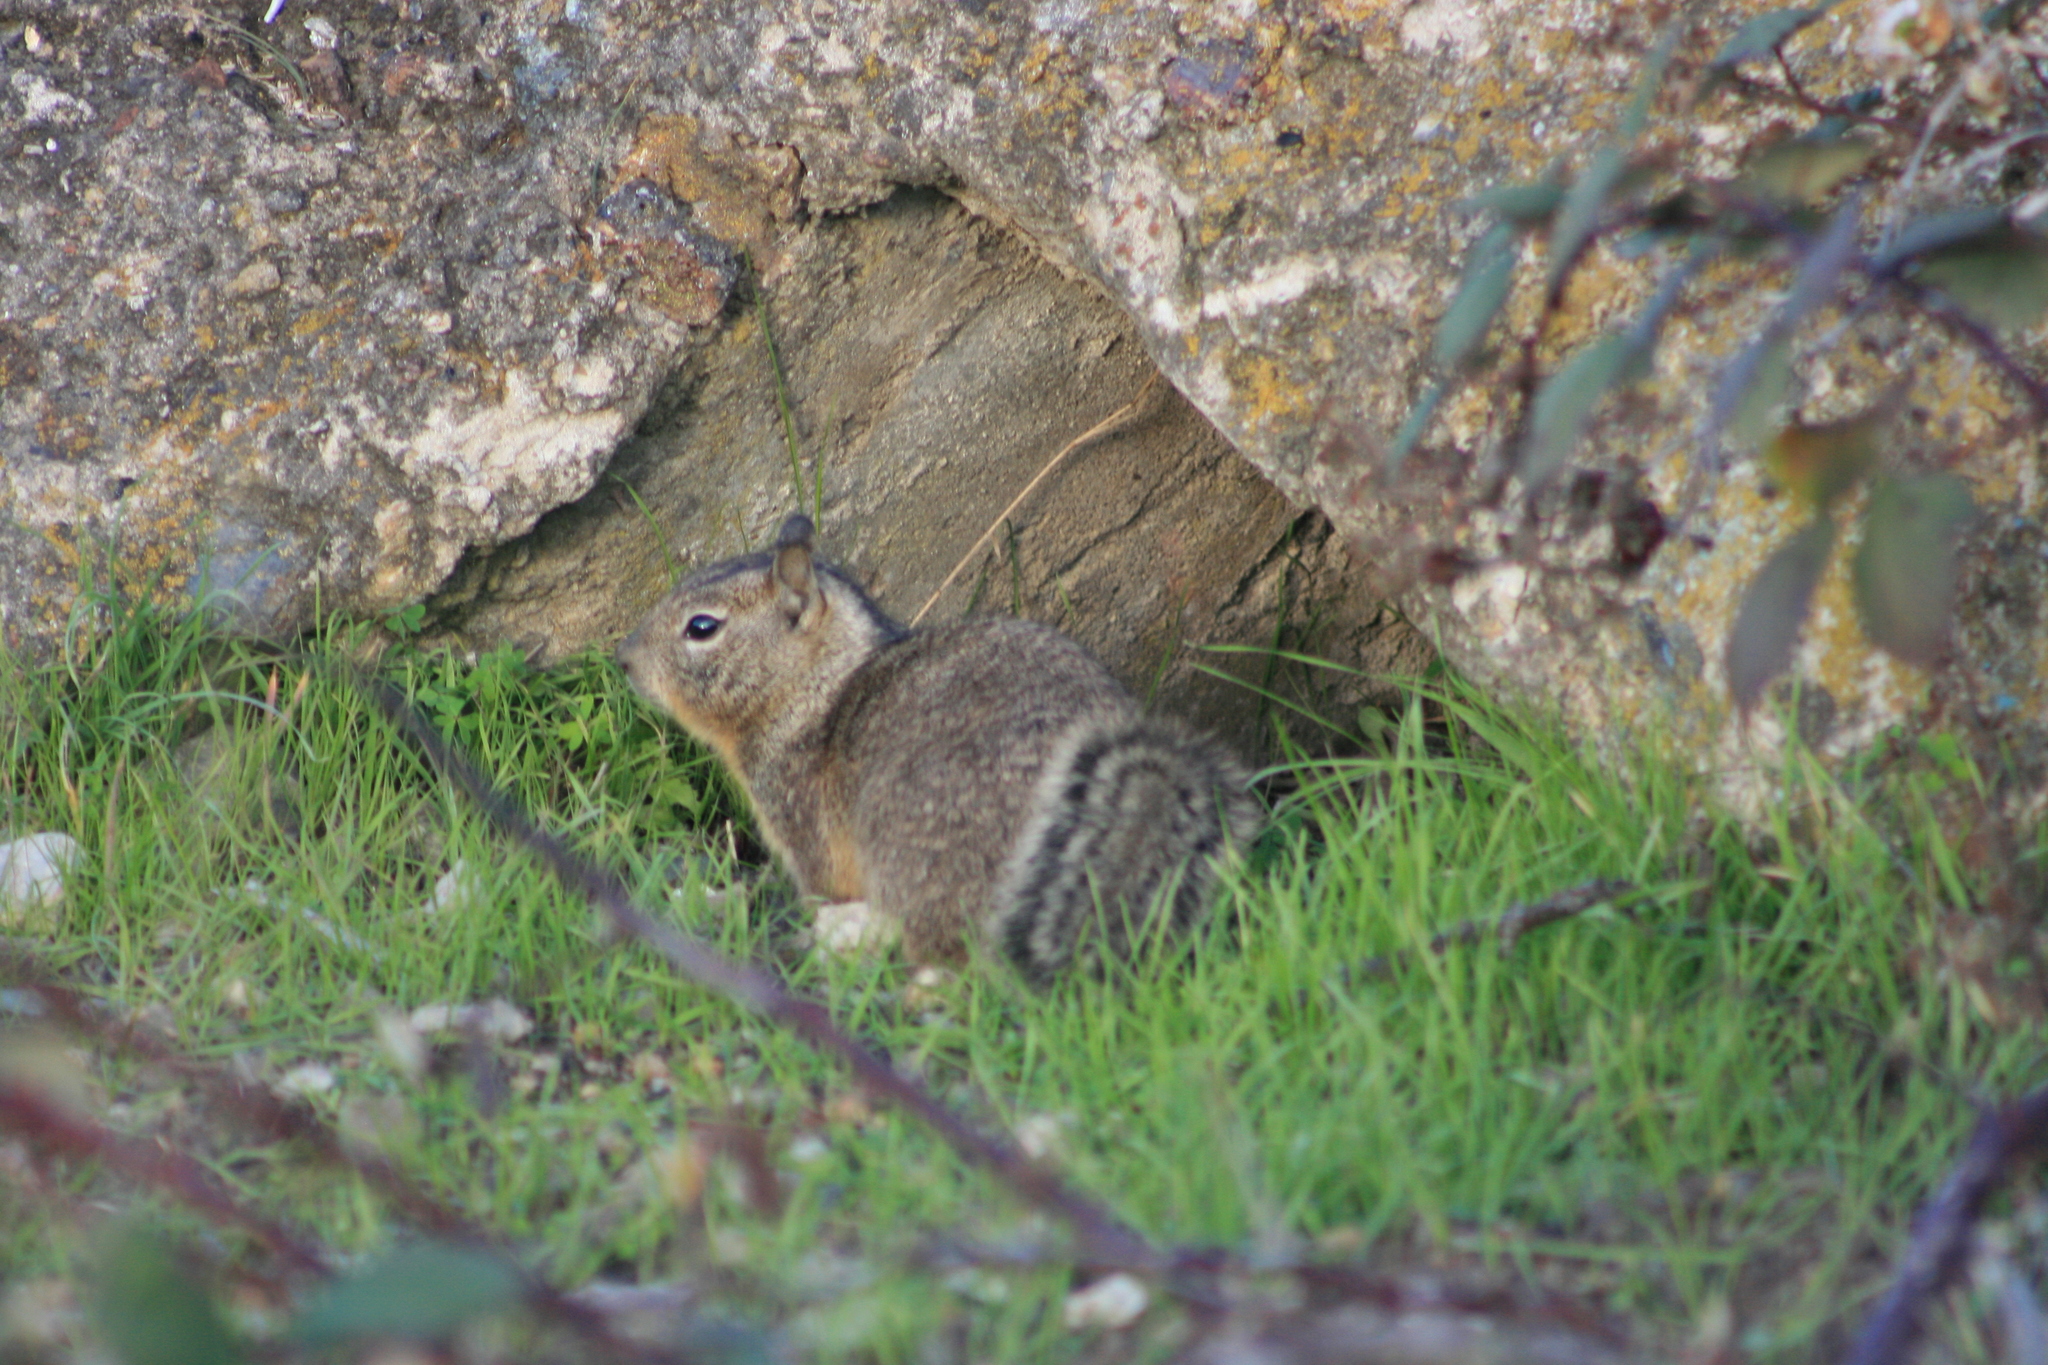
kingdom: Animalia
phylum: Chordata
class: Mammalia
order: Rodentia
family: Sciuridae
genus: Otospermophilus
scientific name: Otospermophilus beecheyi
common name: California ground squirrel
